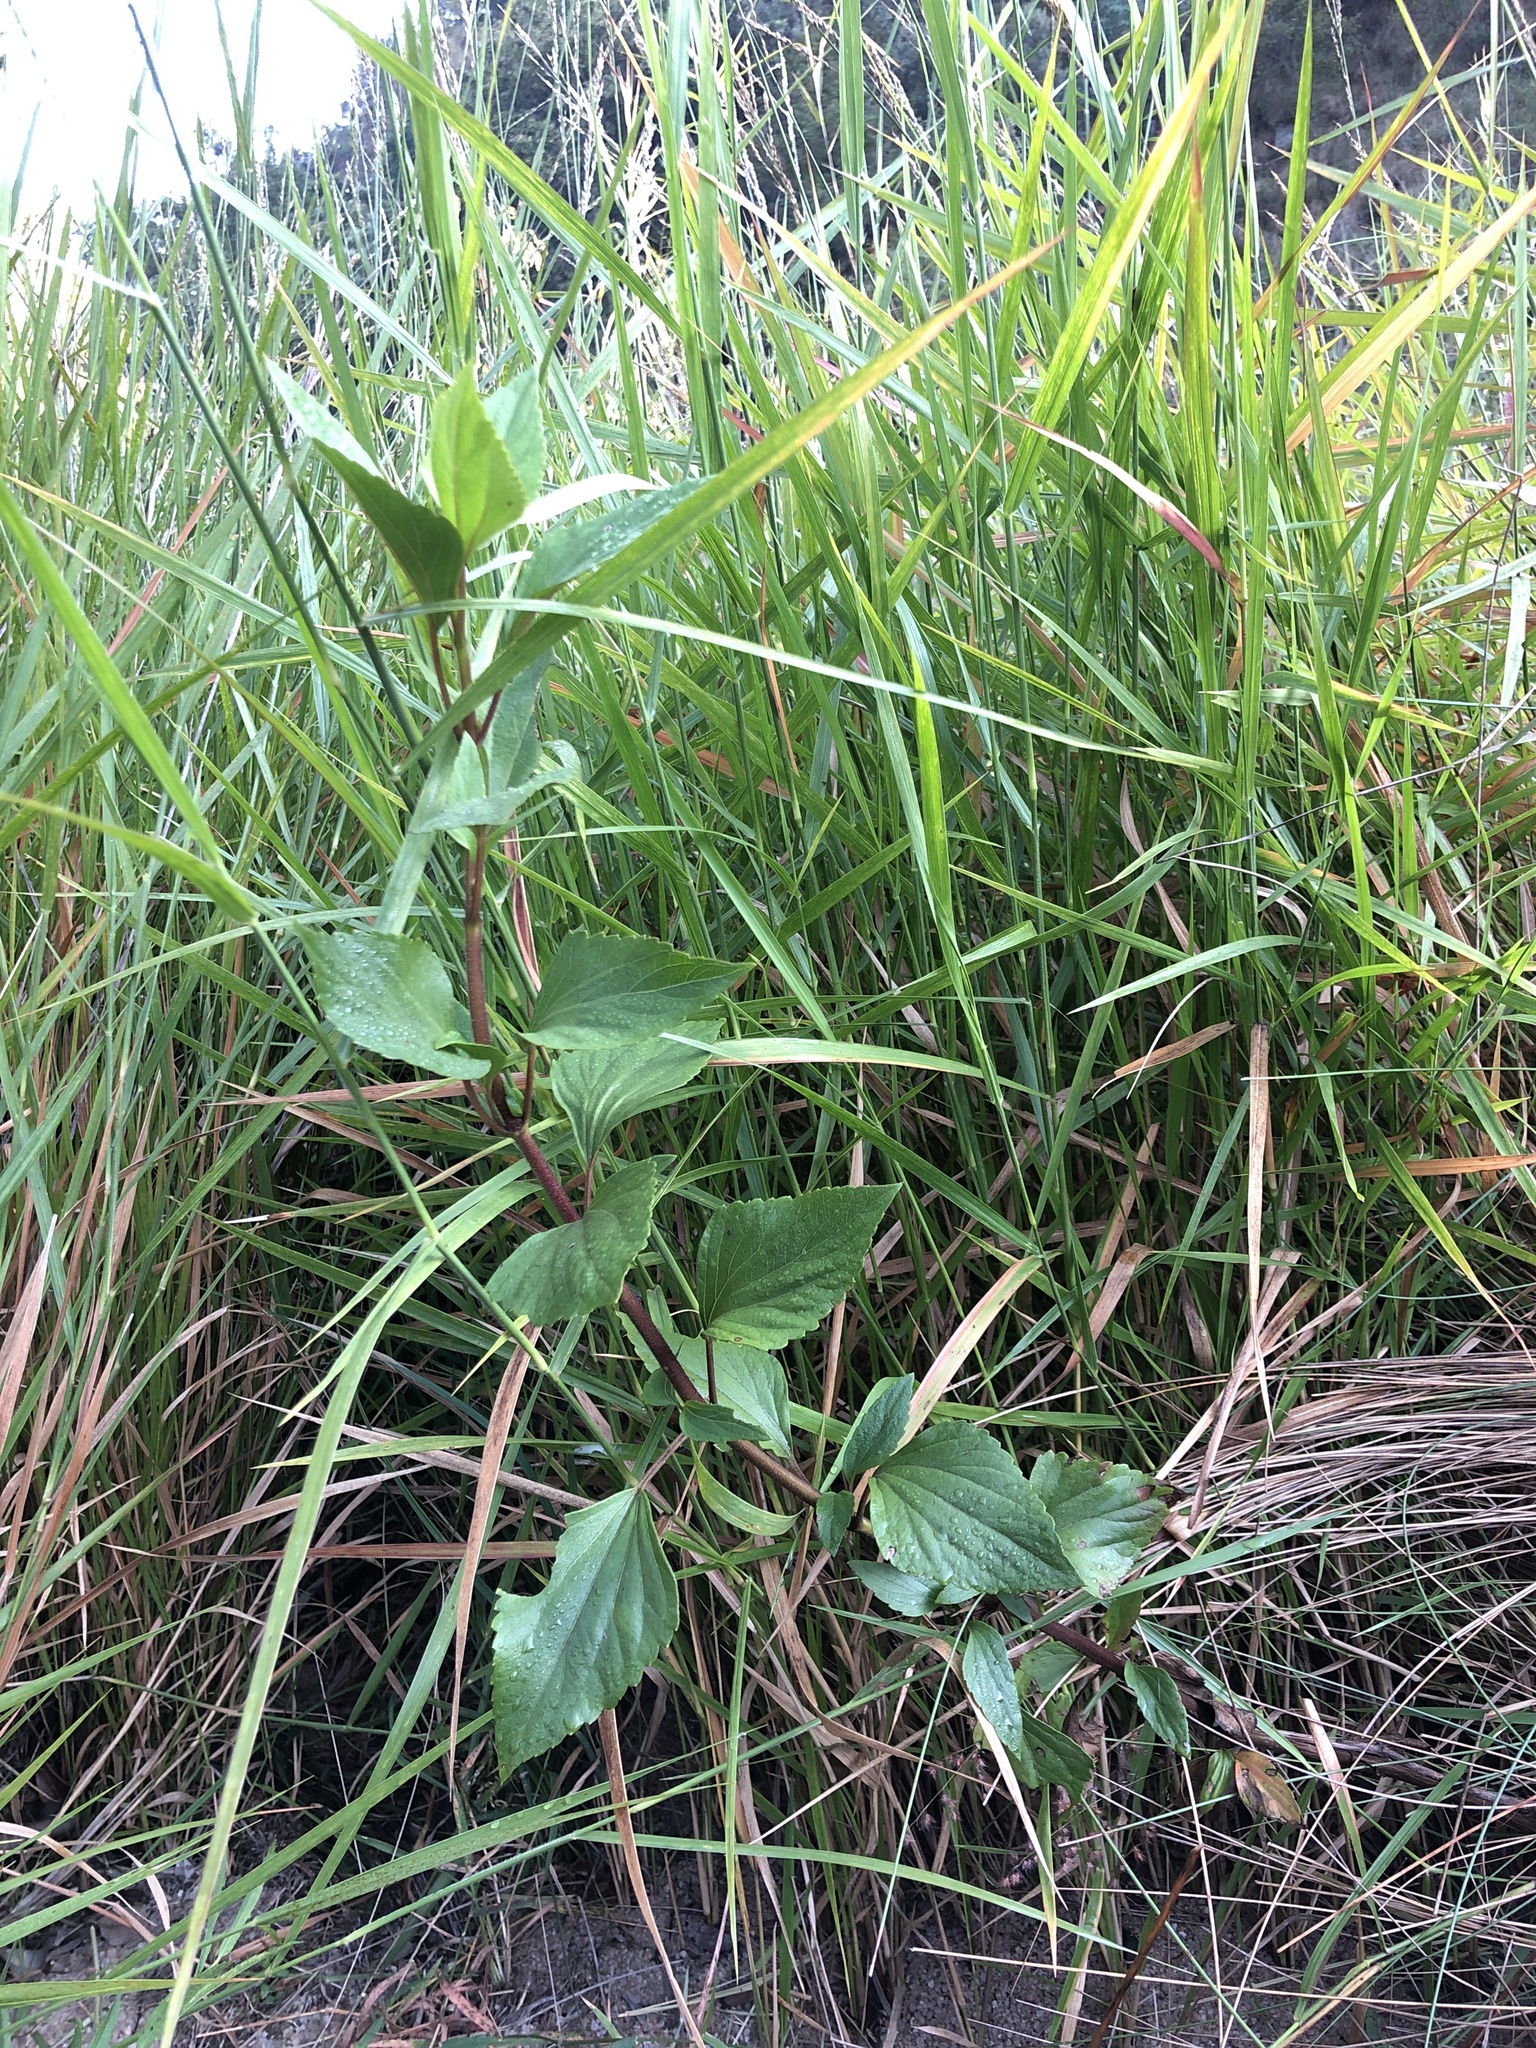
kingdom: Plantae
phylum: Tracheophyta
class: Magnoliopsida
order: Asterales
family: Asteraceae
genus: Ageratina
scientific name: Ageratina adenophora
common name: Sticky snakeroot
